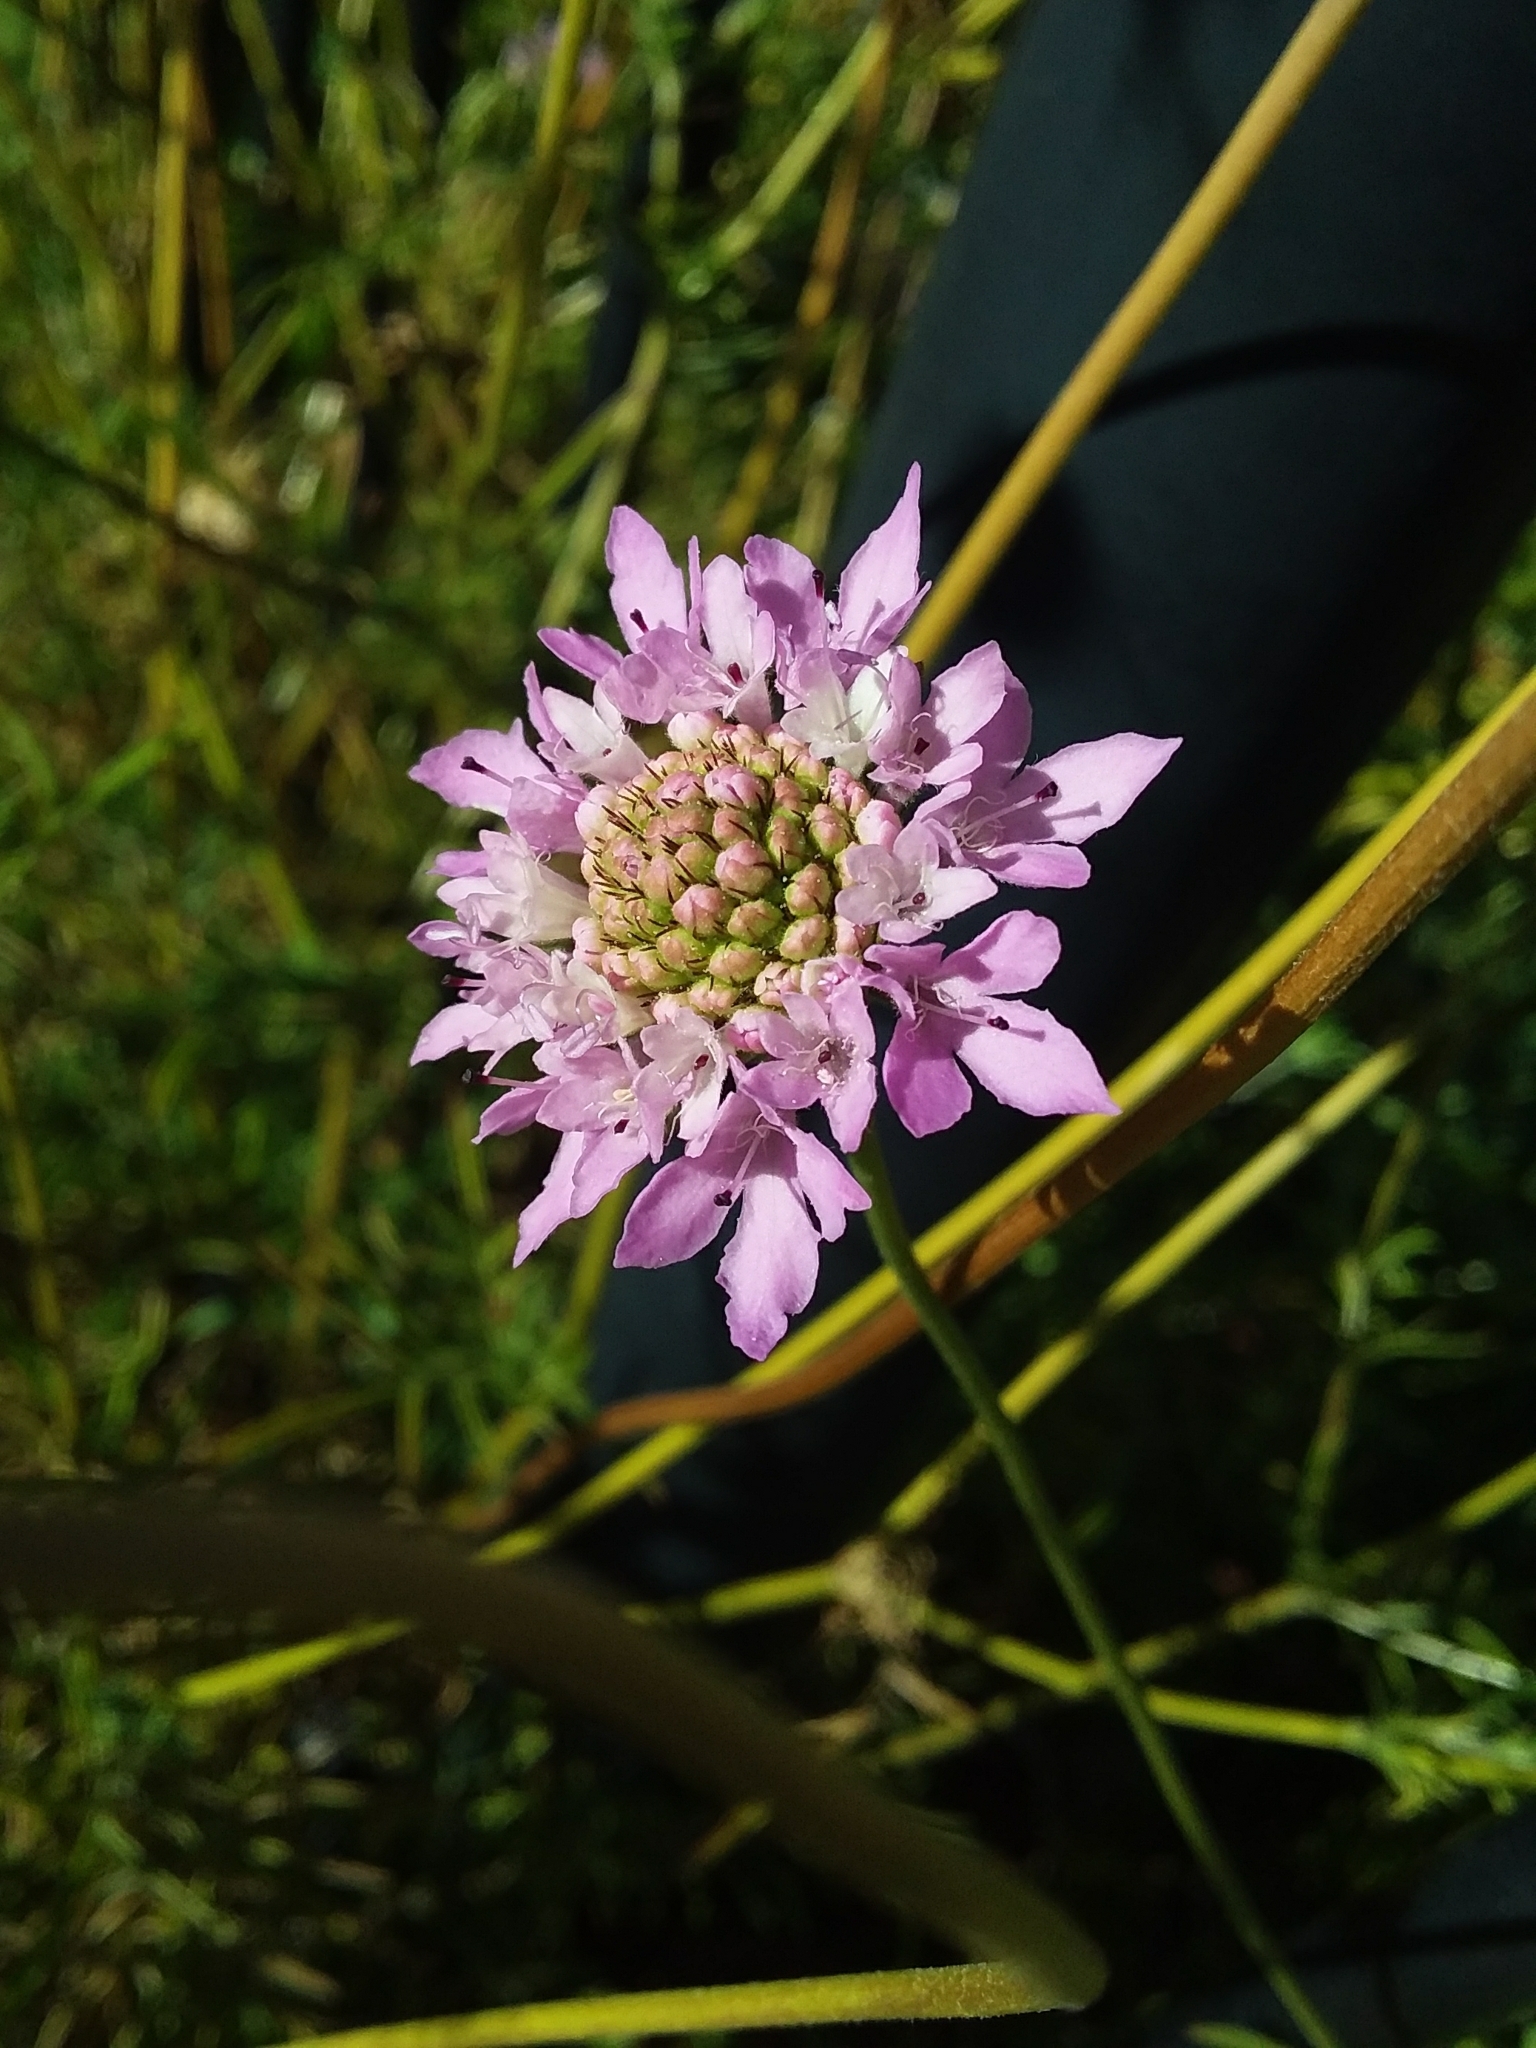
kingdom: Plantae
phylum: Tracheophyta
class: Magnoliopsida
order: Dipsacales
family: Caprifoliaceae
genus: Sixalix
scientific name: Sixalix atropurpurea
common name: Sweet scabious
